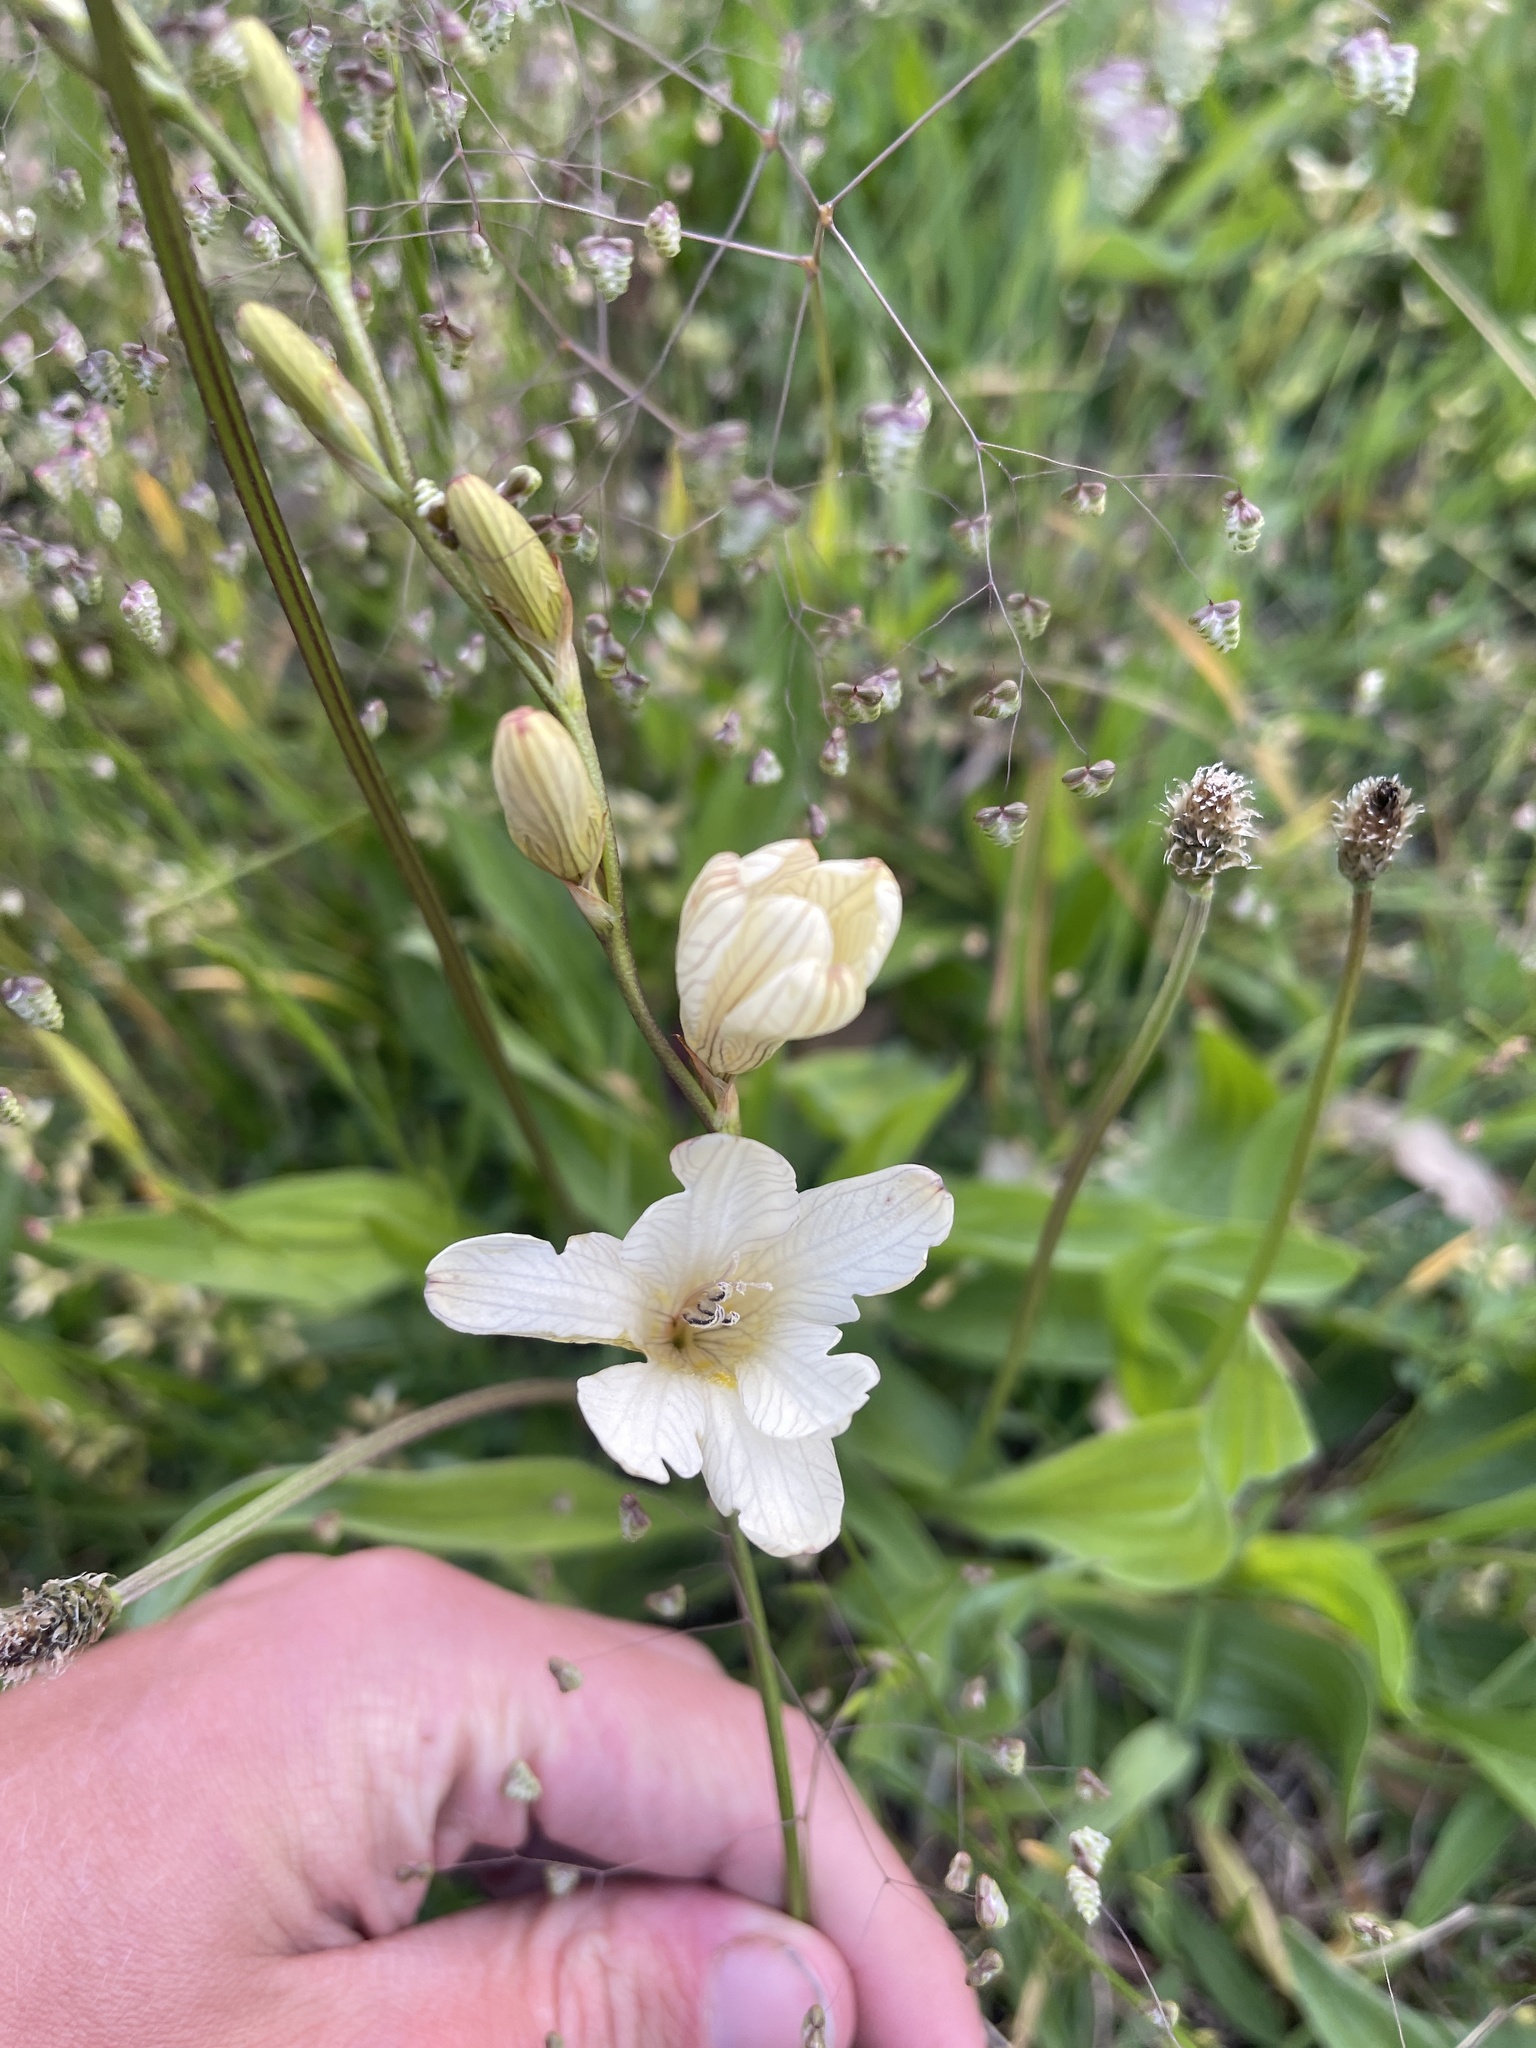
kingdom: Plantae
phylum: Tracheophyta
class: Liliopsida
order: Asparagales
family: Iridaceae
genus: Tritonia
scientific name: Tritonia gladiolaris
